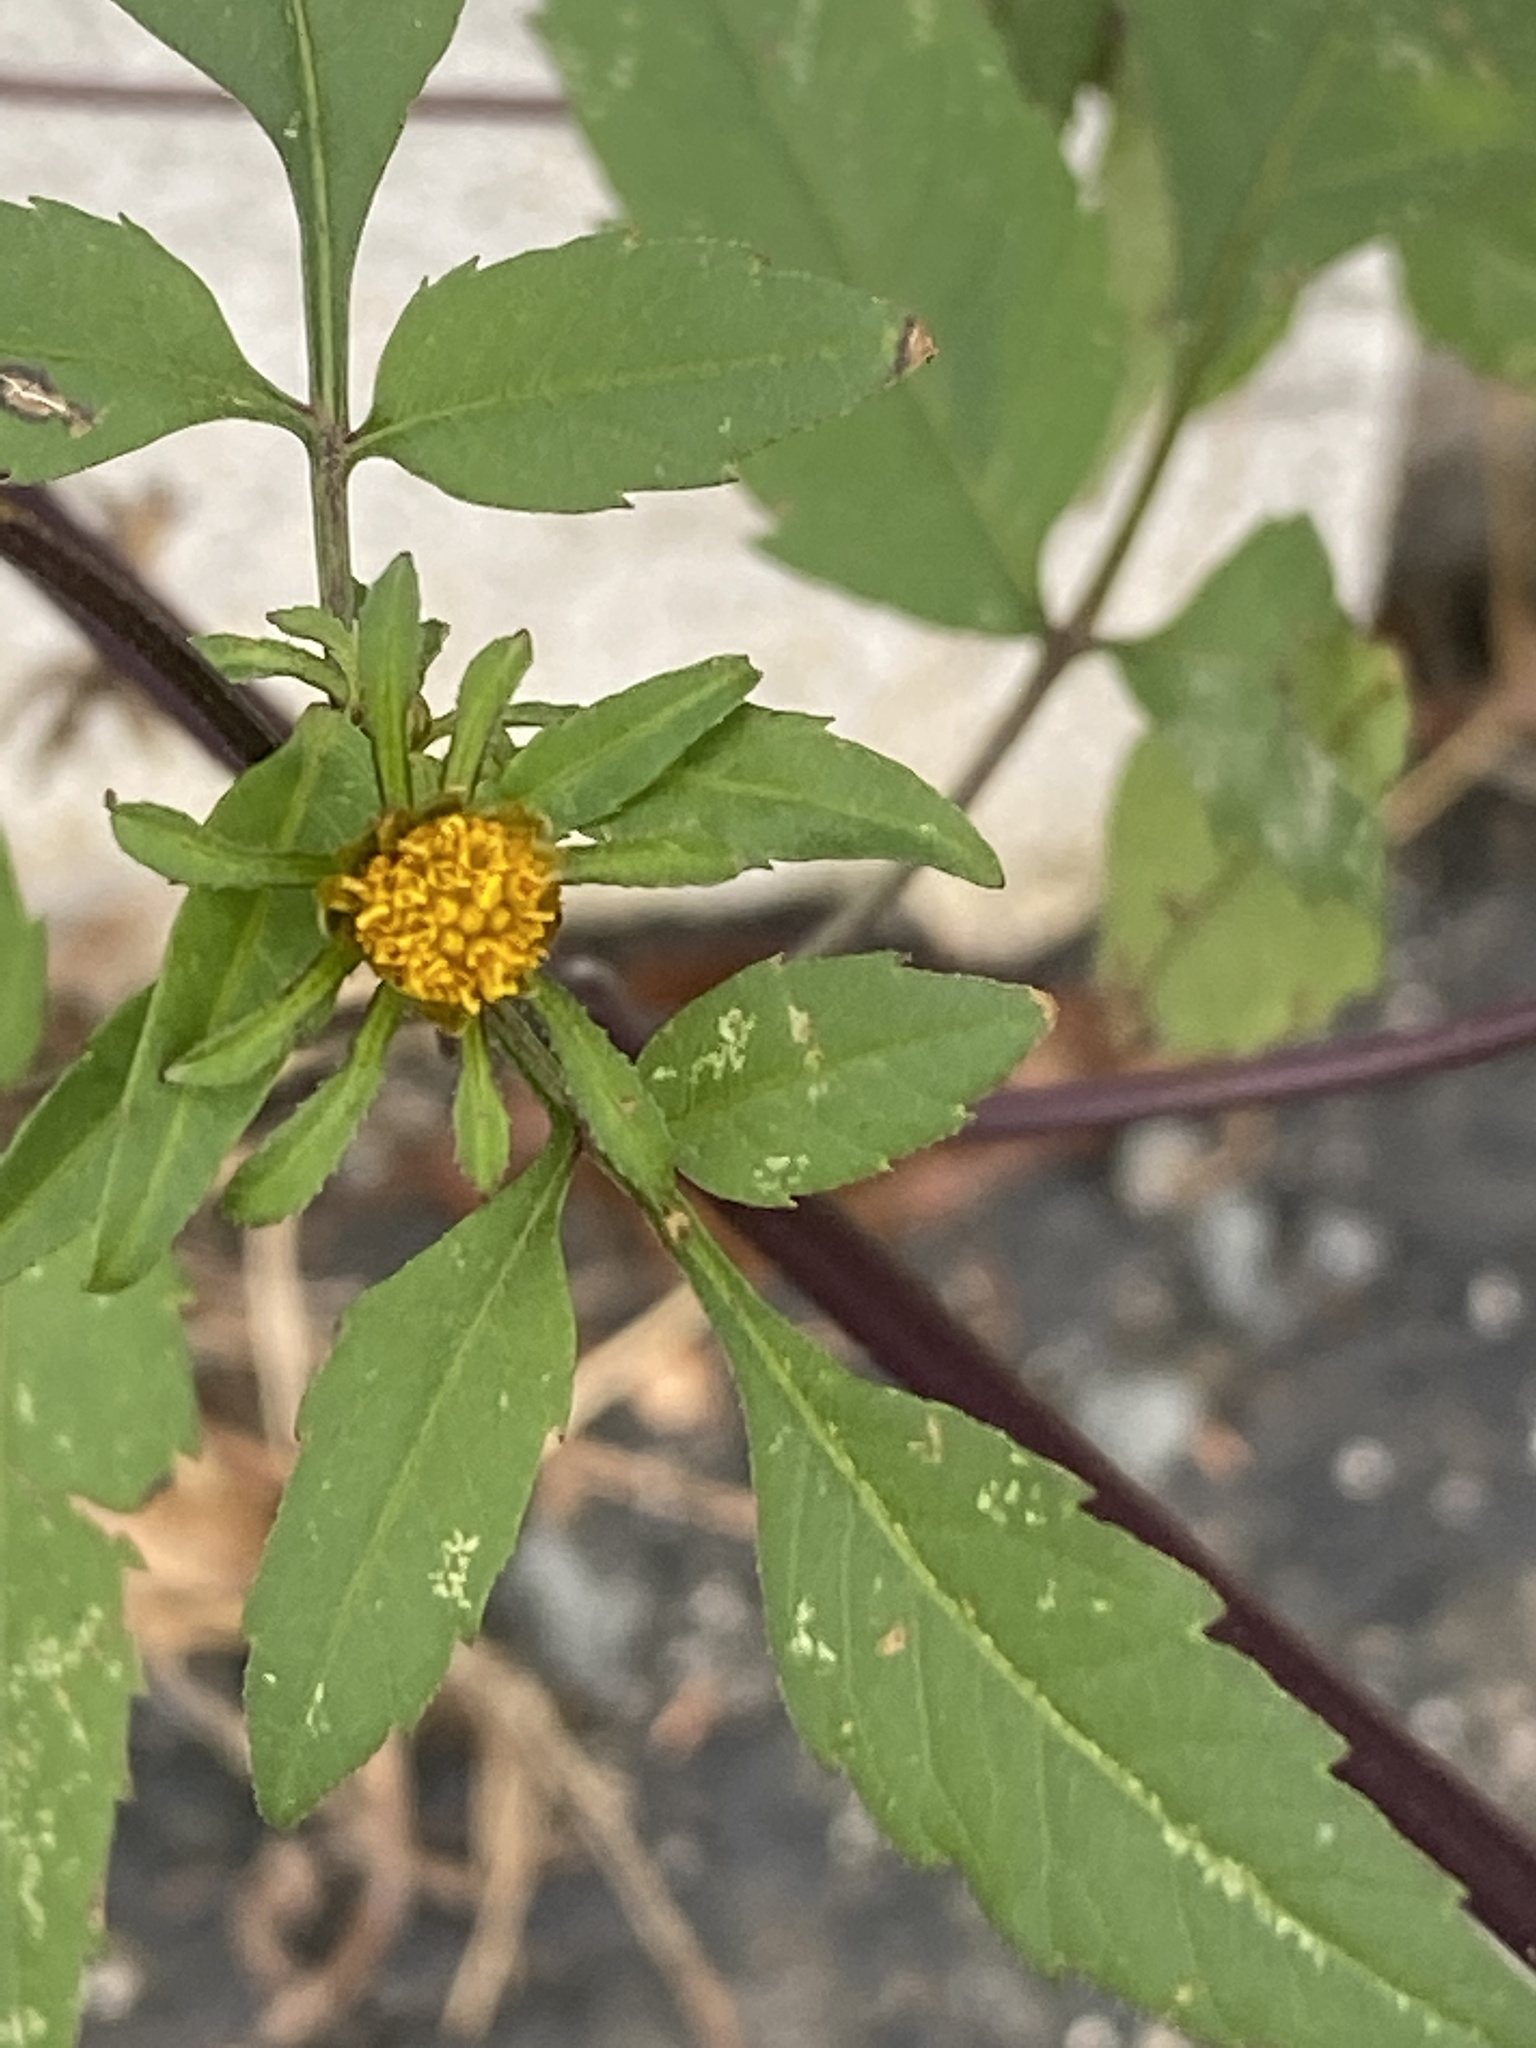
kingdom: Plantae
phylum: Tracheophyta
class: Magnoliopsida
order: Asterales
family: Asteraceae
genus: Bidens
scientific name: Bidens frondosa
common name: Beggarticks
